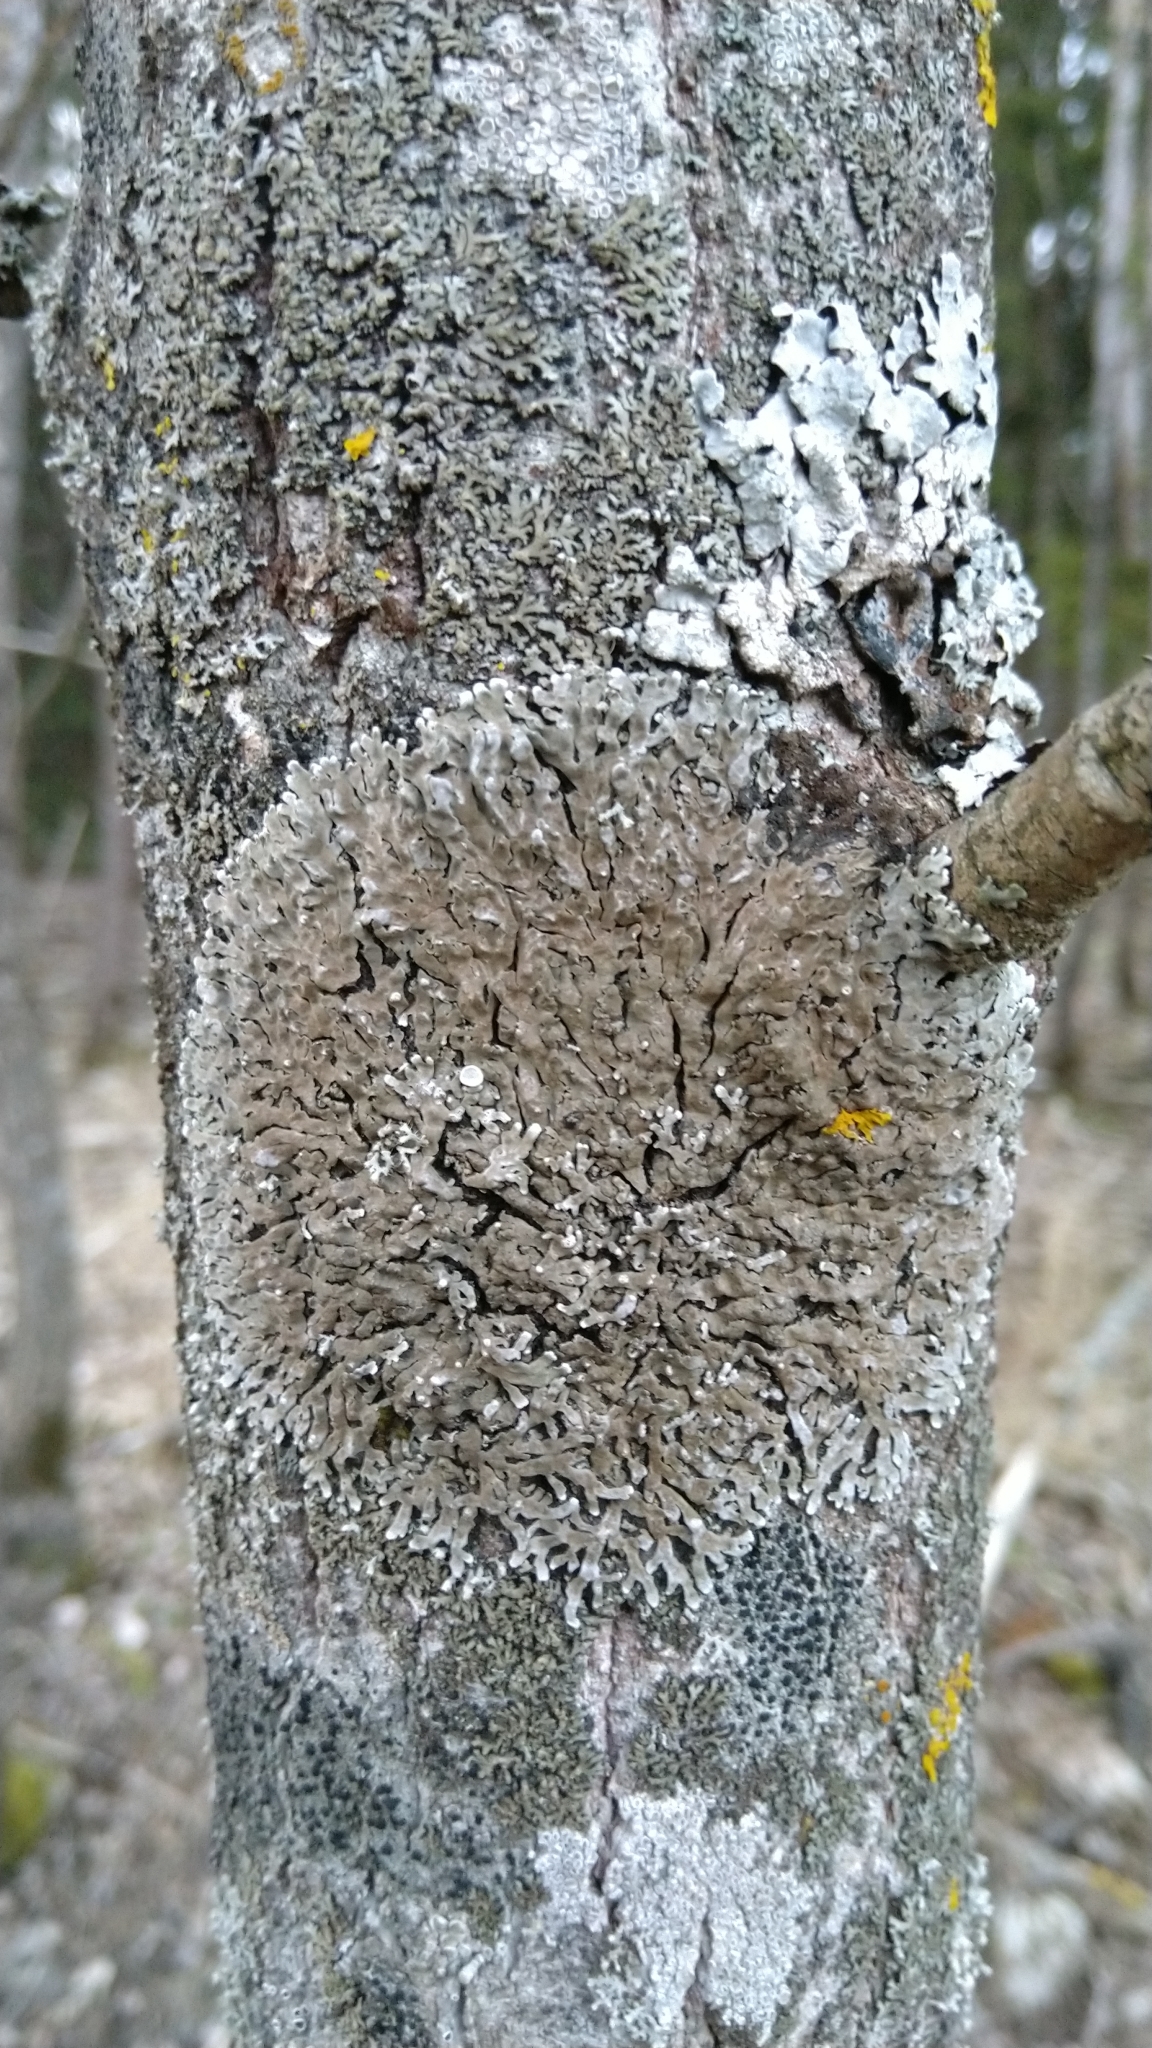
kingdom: Fungi
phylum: Ascomycota
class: Lecanoromycetes
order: Caliciales
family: Physciaceae
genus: Physconia
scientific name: Physconia distorta
